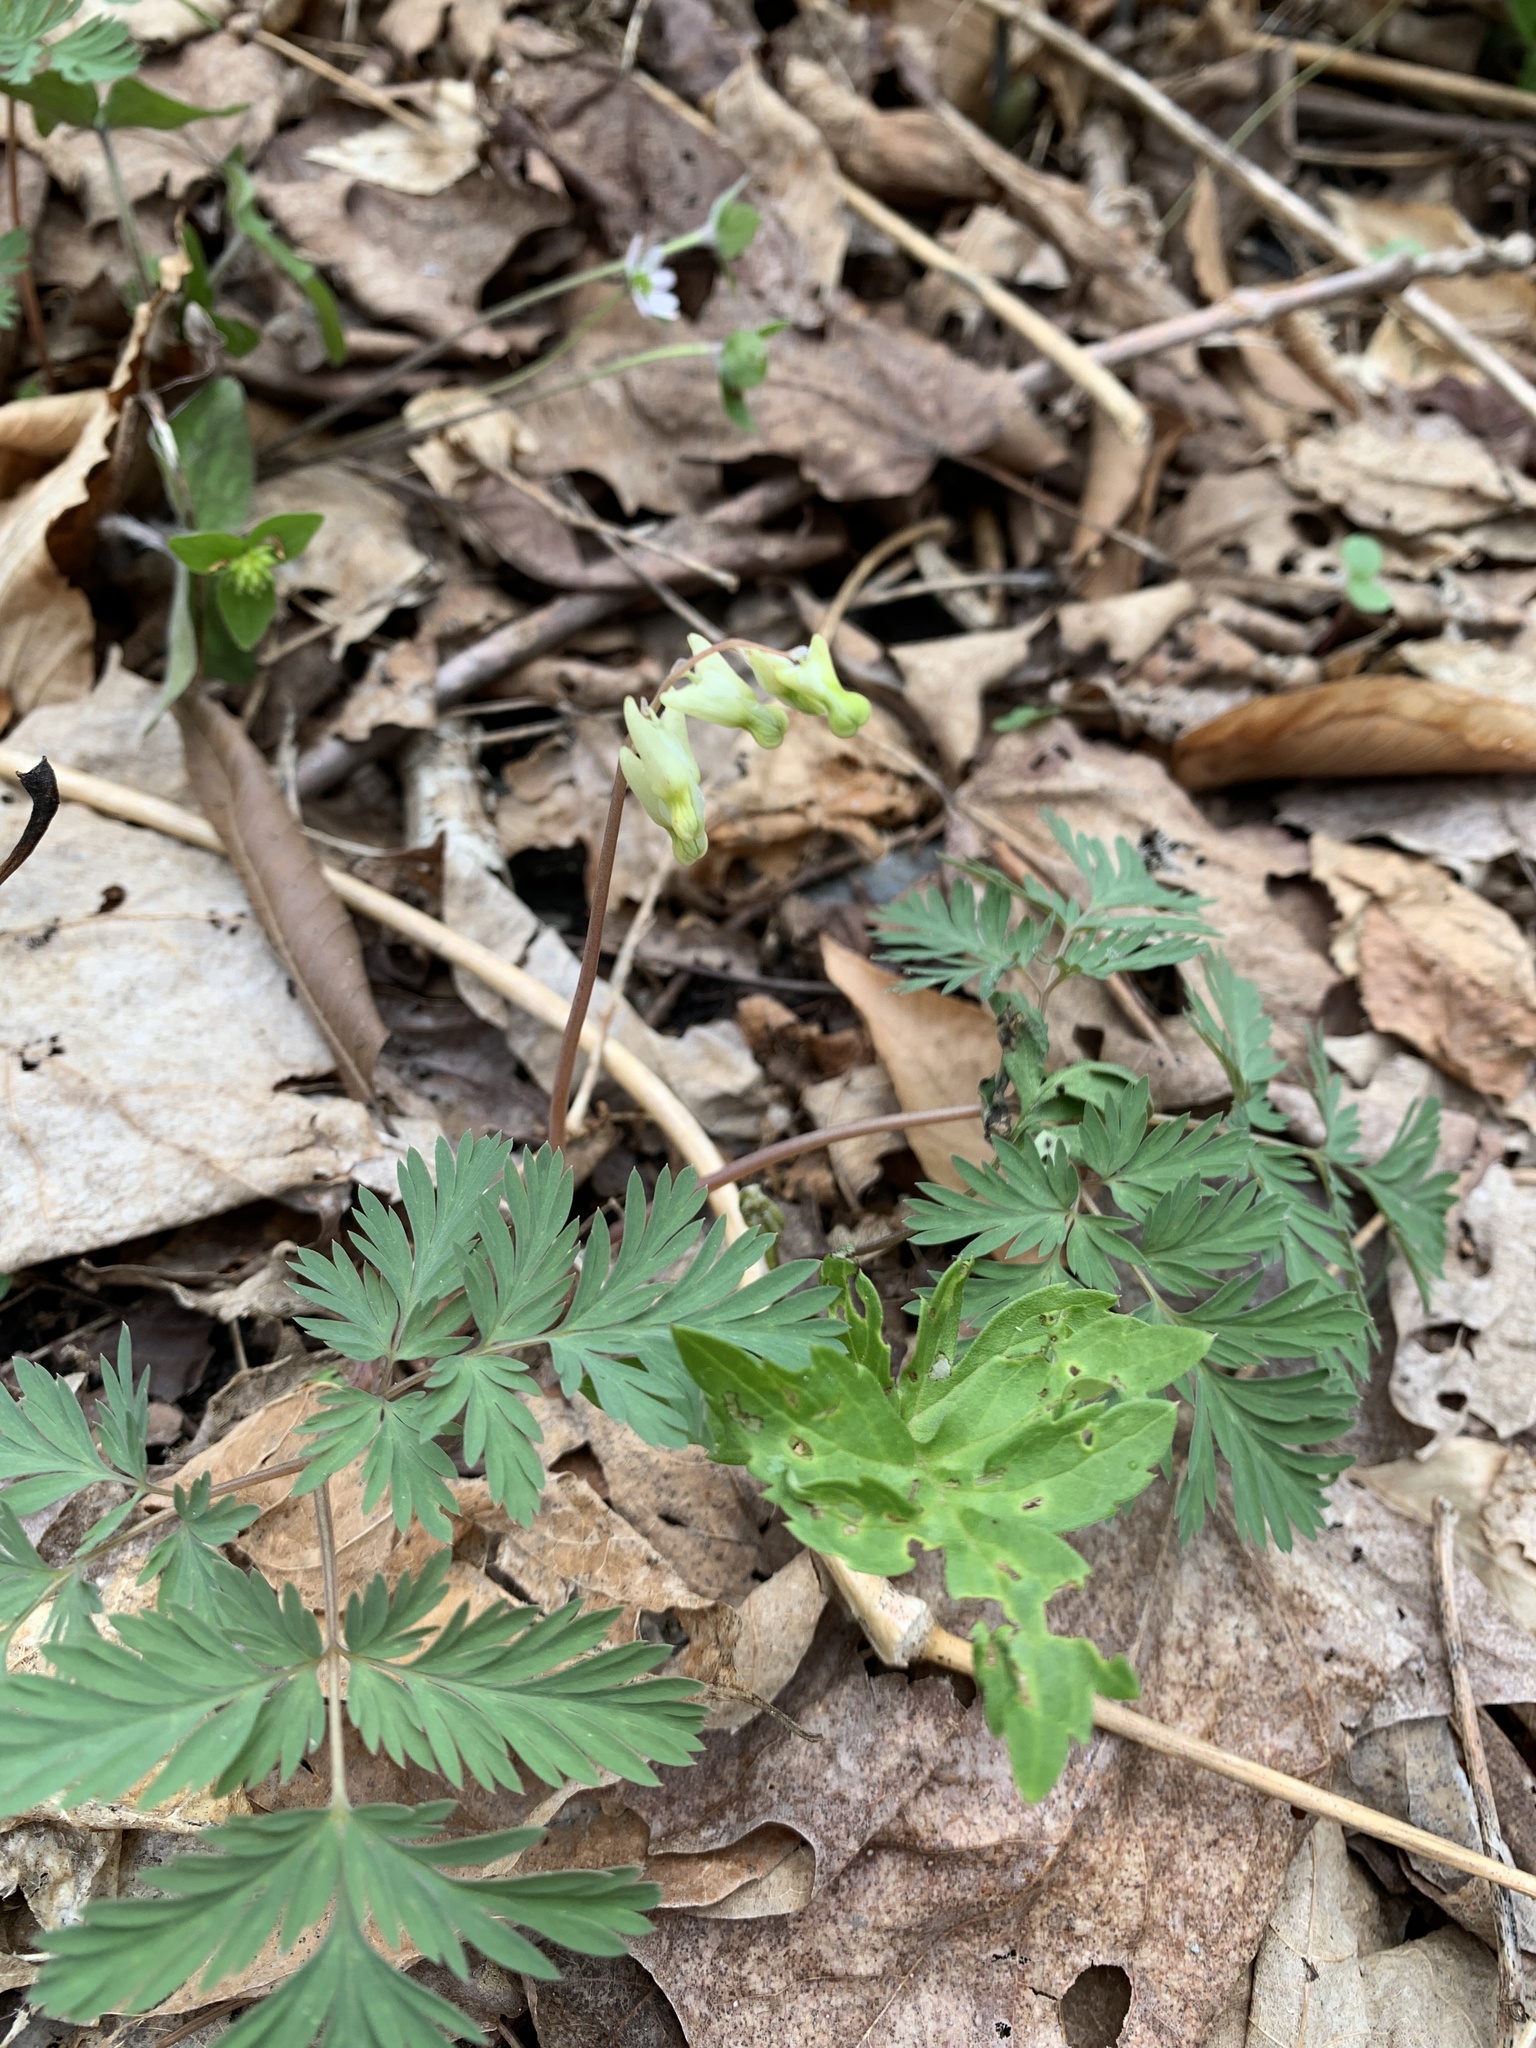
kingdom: Plantae
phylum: Tracheophyta
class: Magnoliopsida
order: Ranunculales
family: Papaveraceae
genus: Dicentra
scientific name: Dicentra cucullaria
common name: Dutchman's breeches
